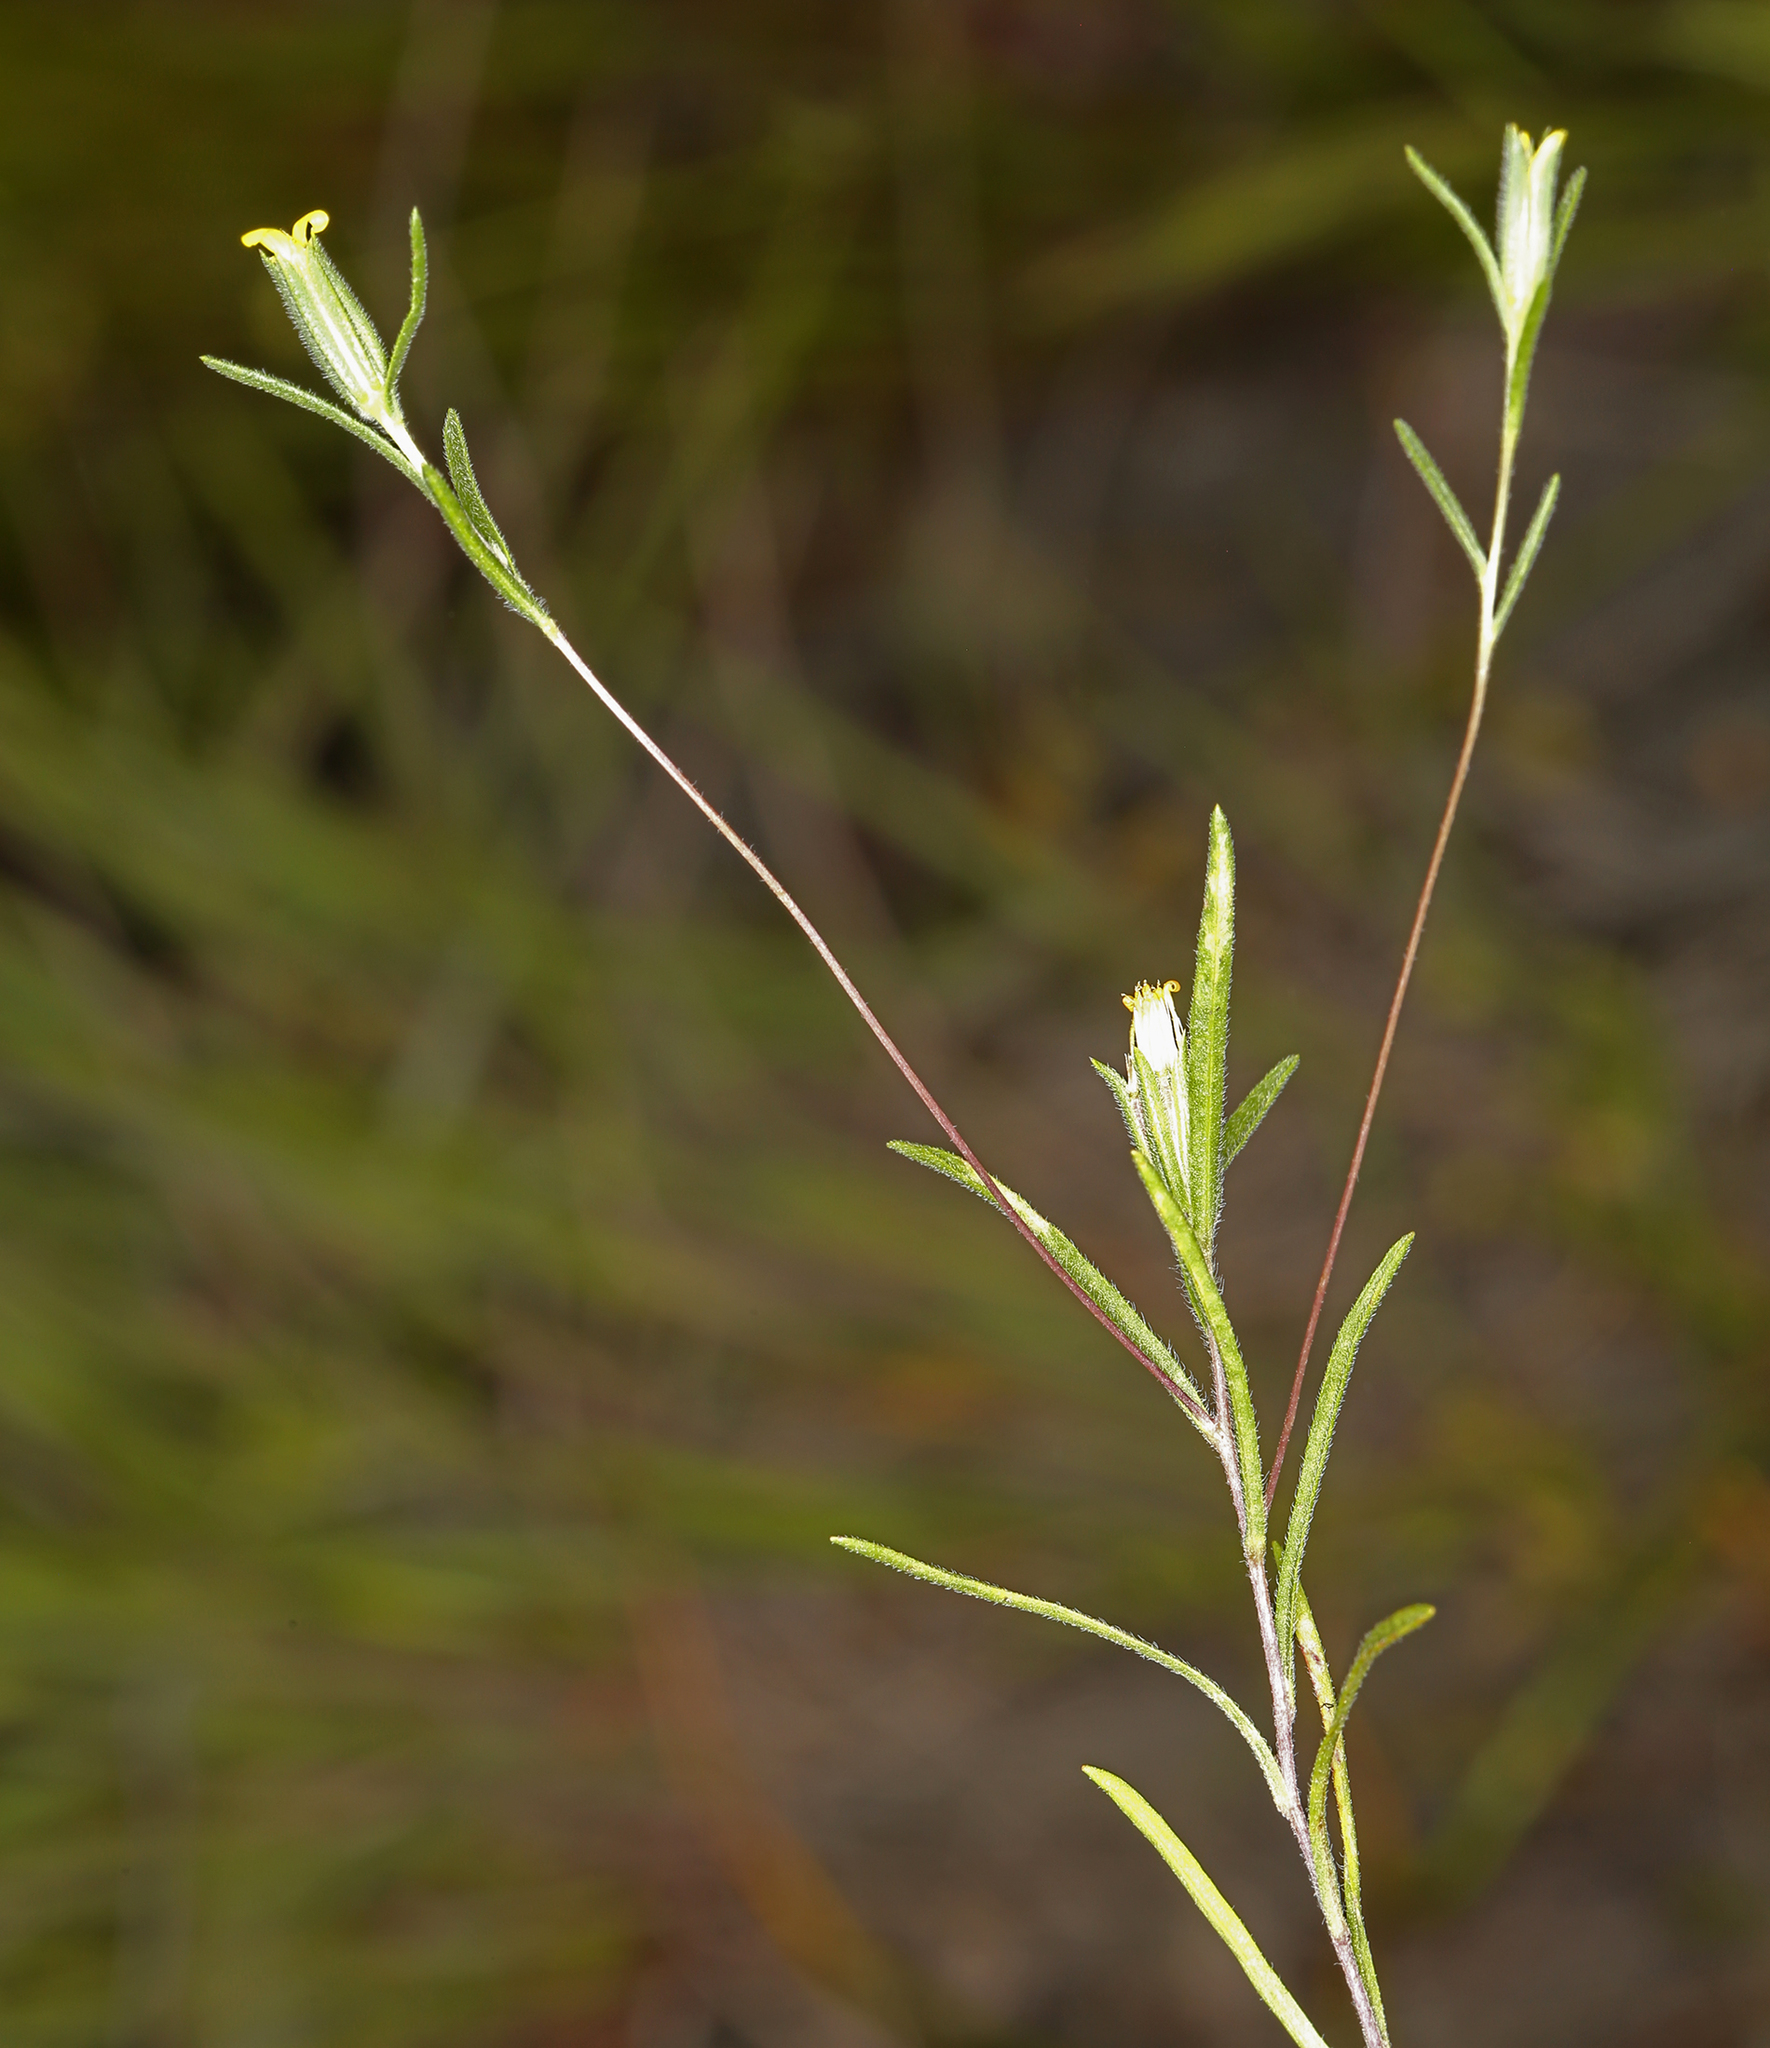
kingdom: Plantae
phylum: Tracheophyta
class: Magnoliopsida
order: Asterales
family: Asteraceae
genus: Achyrachaena
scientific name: Achyrachaena mollis
